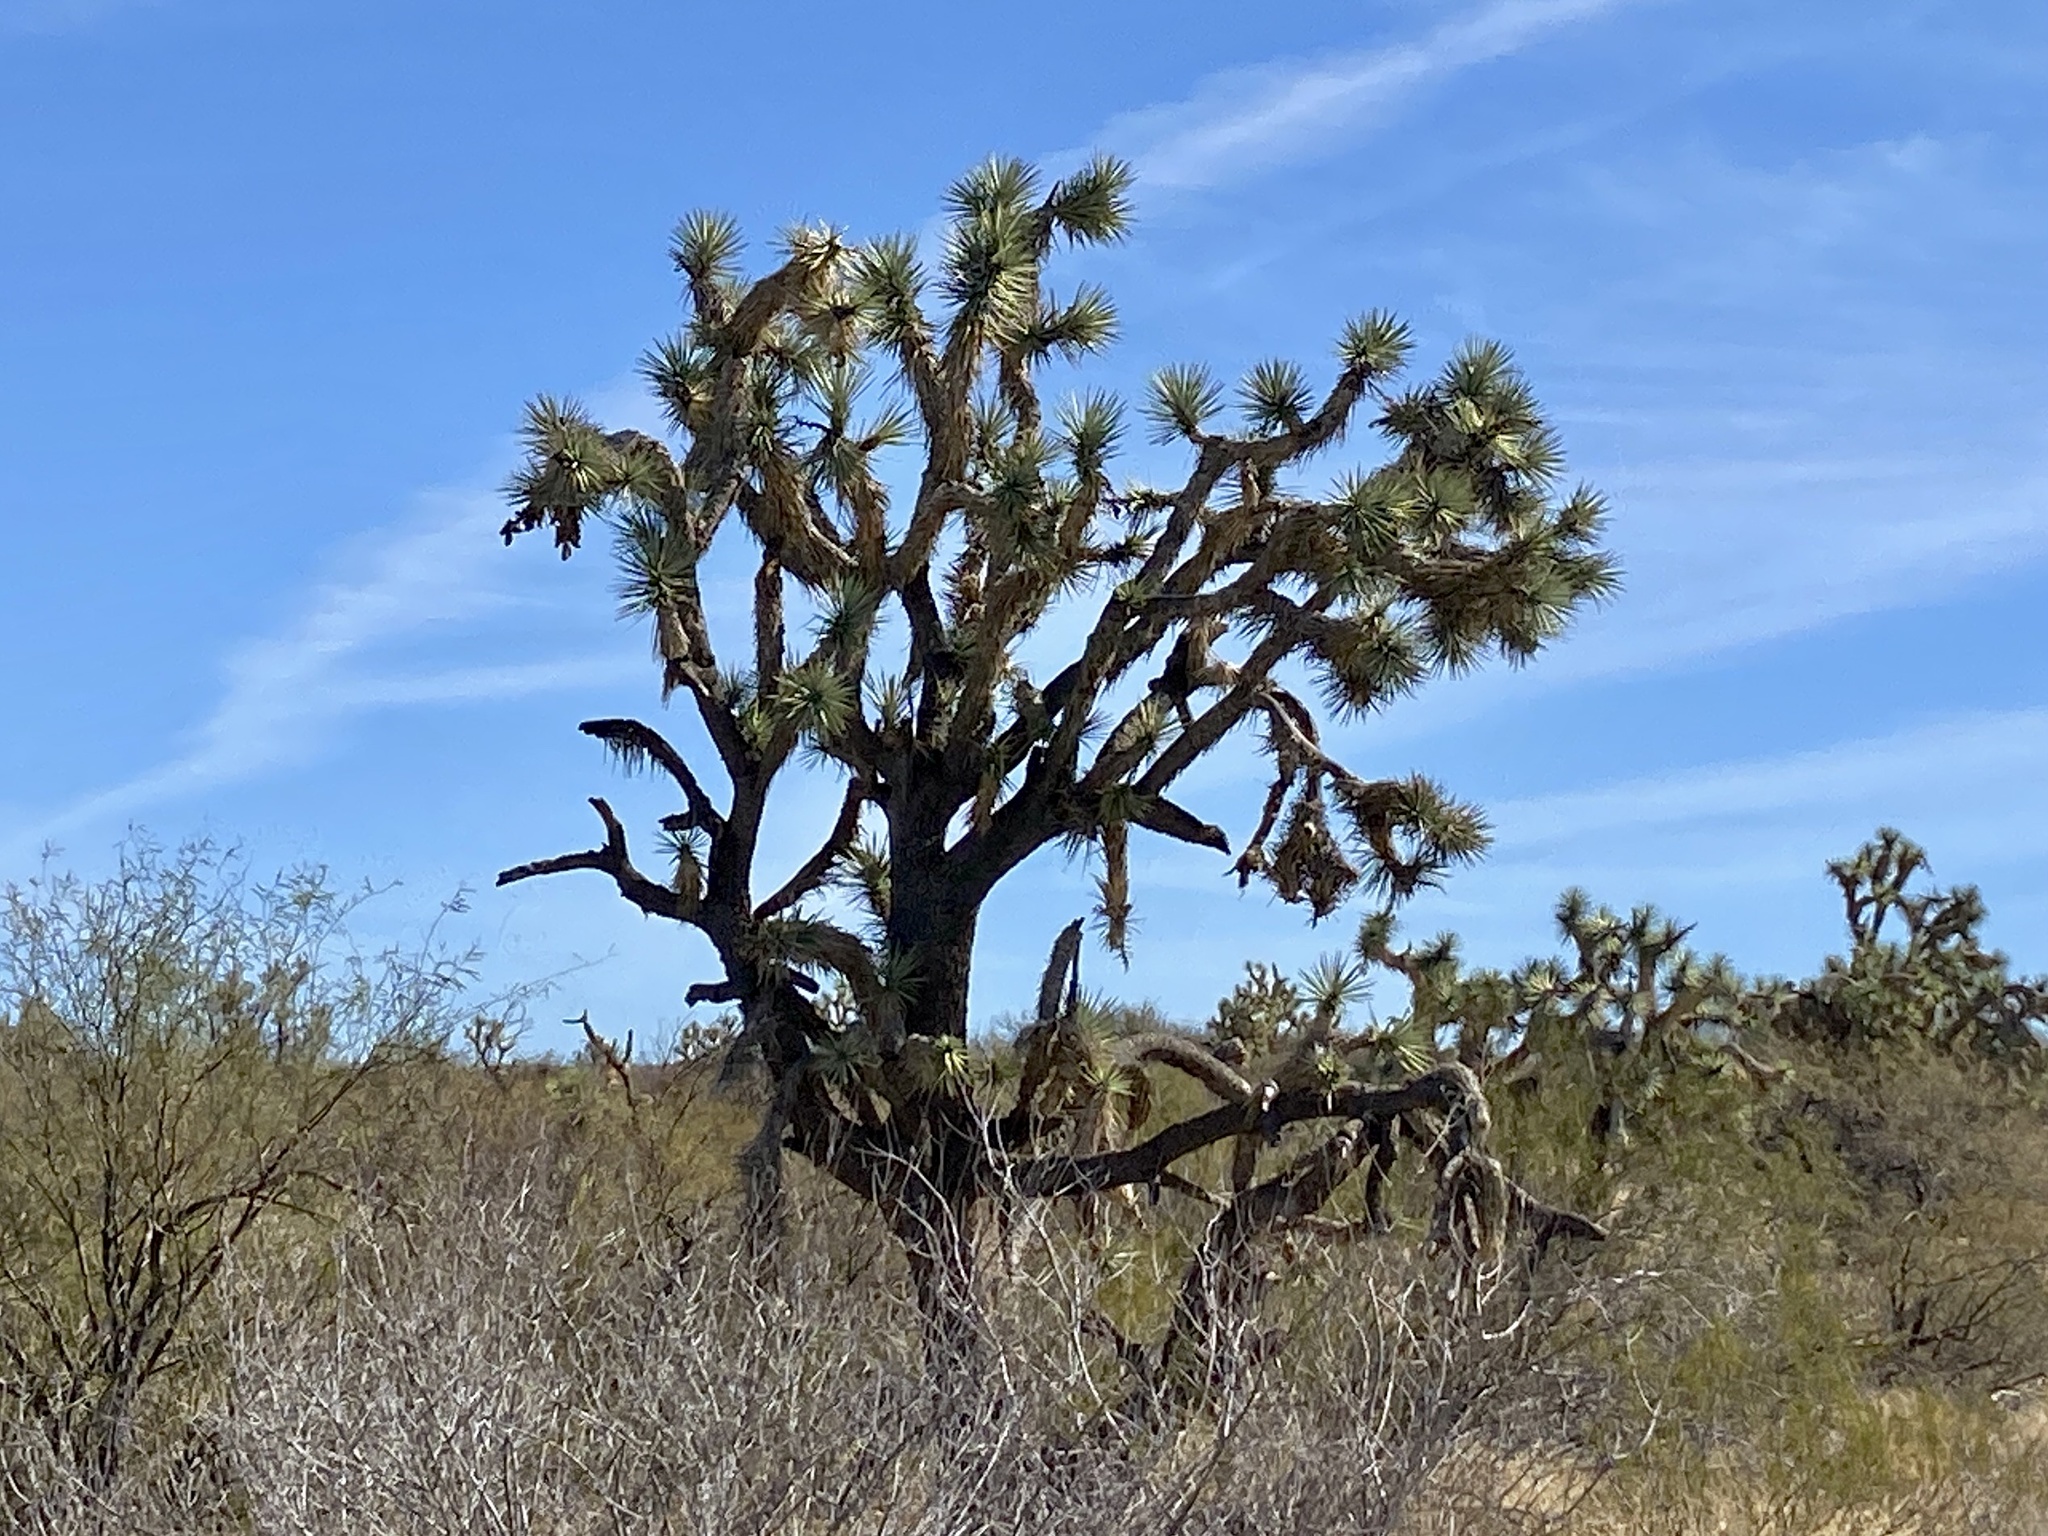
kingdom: Plantae
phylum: Tracheophyta
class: Liliopsida
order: Asparagales
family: Asparagaceae
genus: Yucca
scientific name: Yucca brevifolia
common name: Joshua tree
